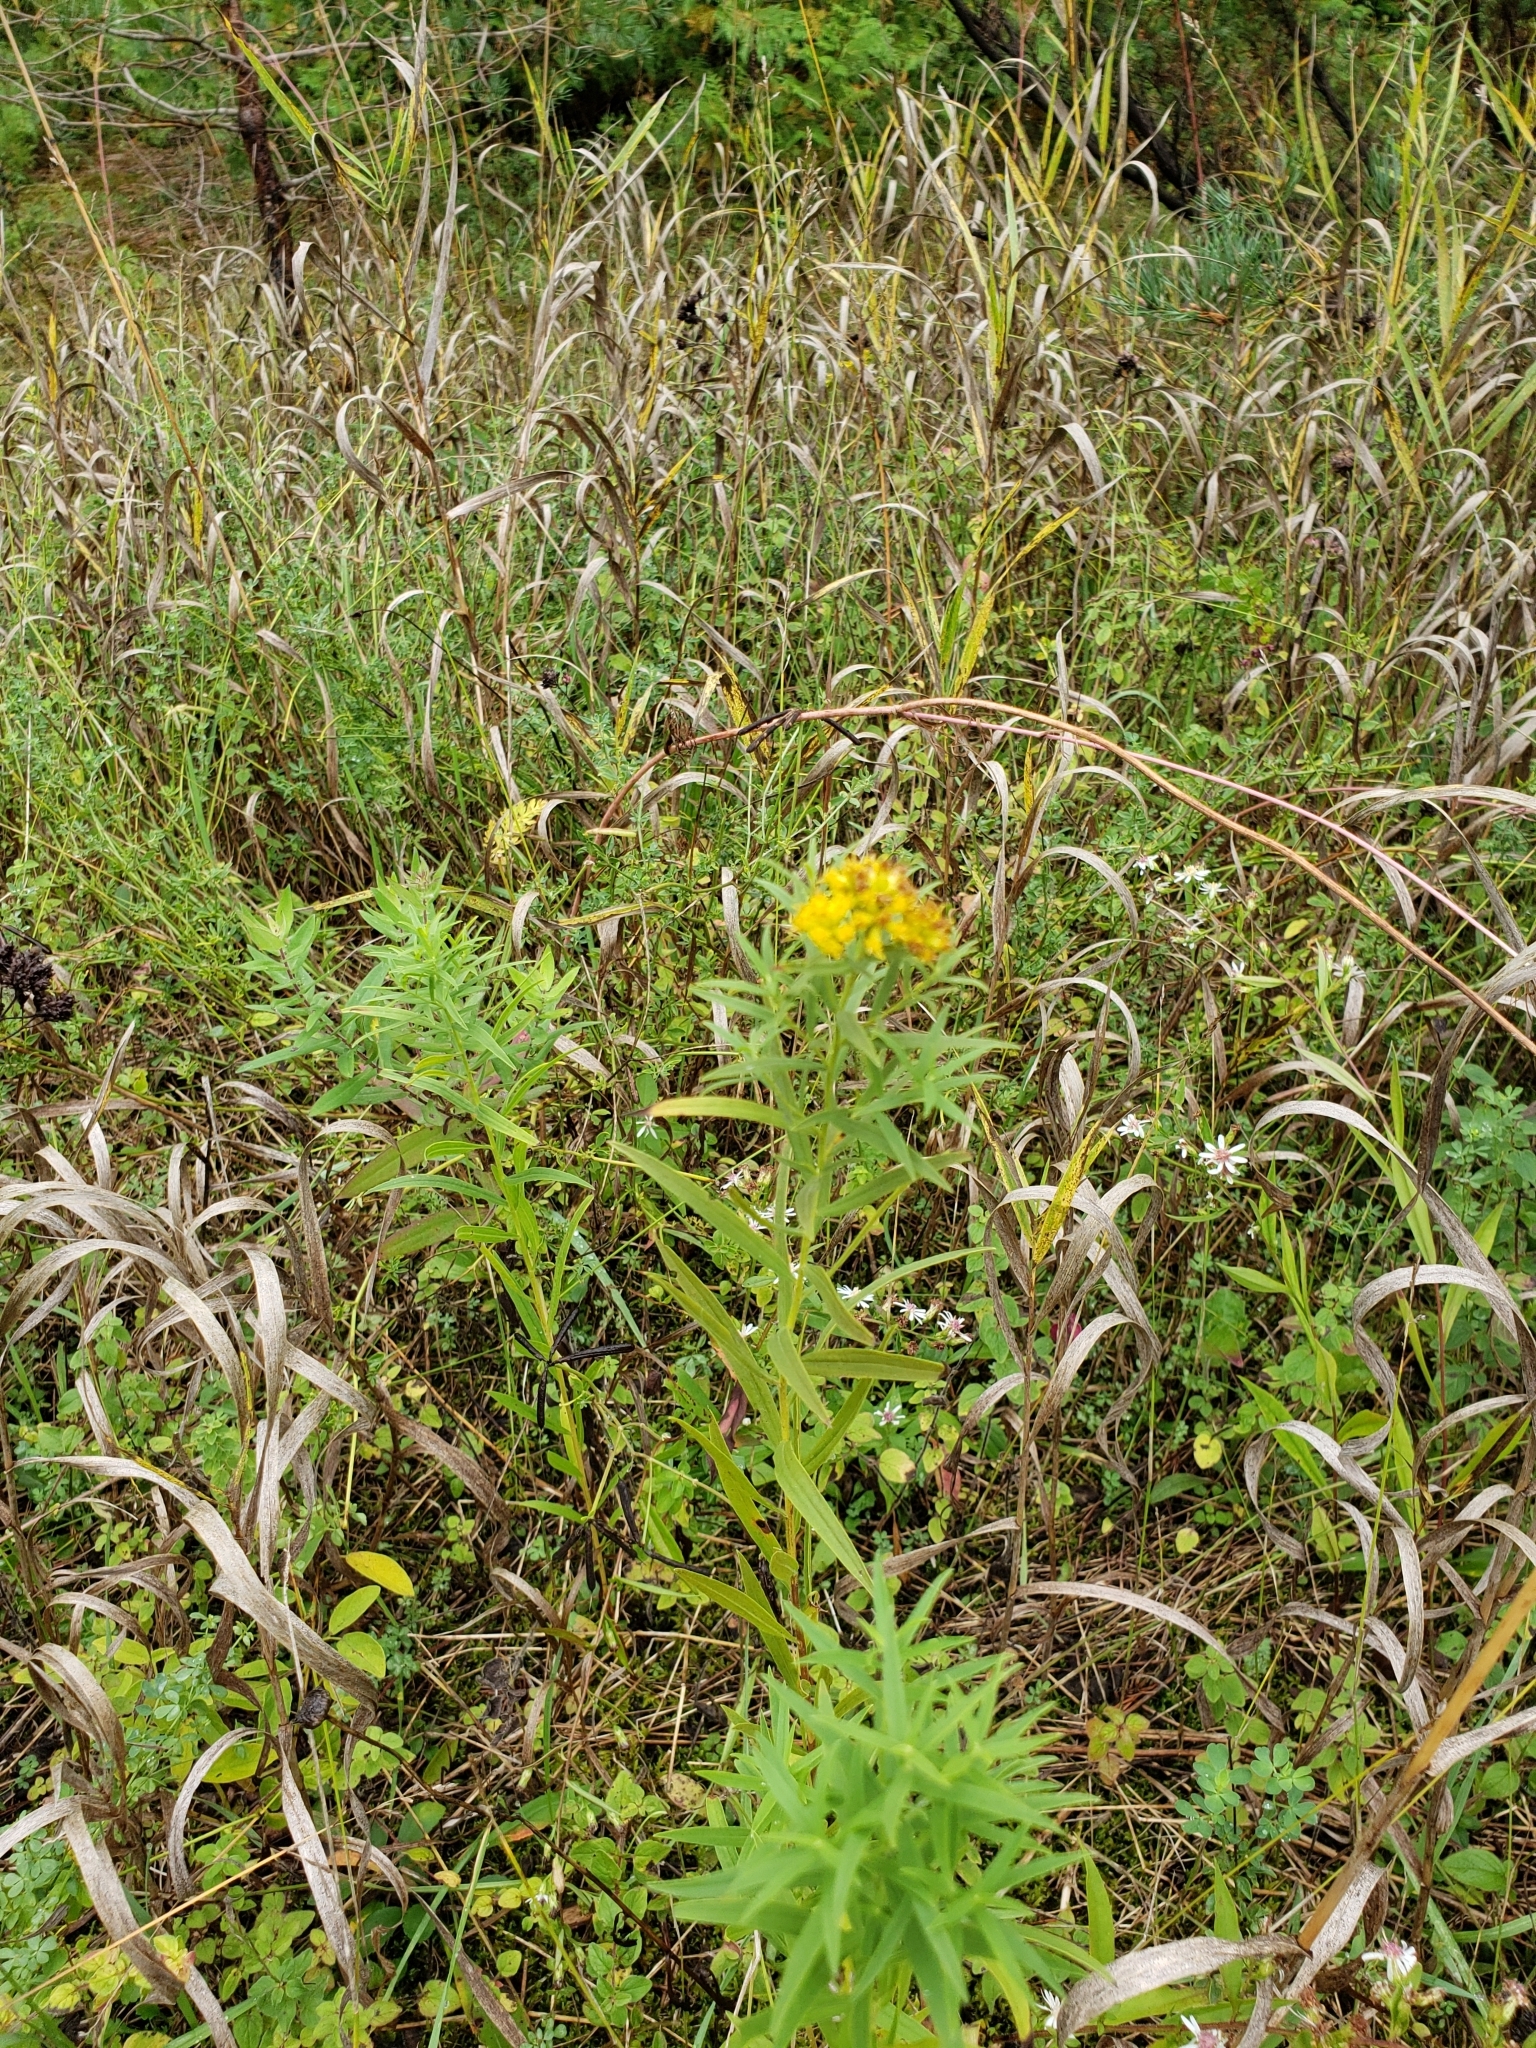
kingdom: Plantae
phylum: Tracheophyta
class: Magnoliopsida
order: Asterales
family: Asteraceae
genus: Euthamia
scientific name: Euthamia graminifolia
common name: Common goldentop
